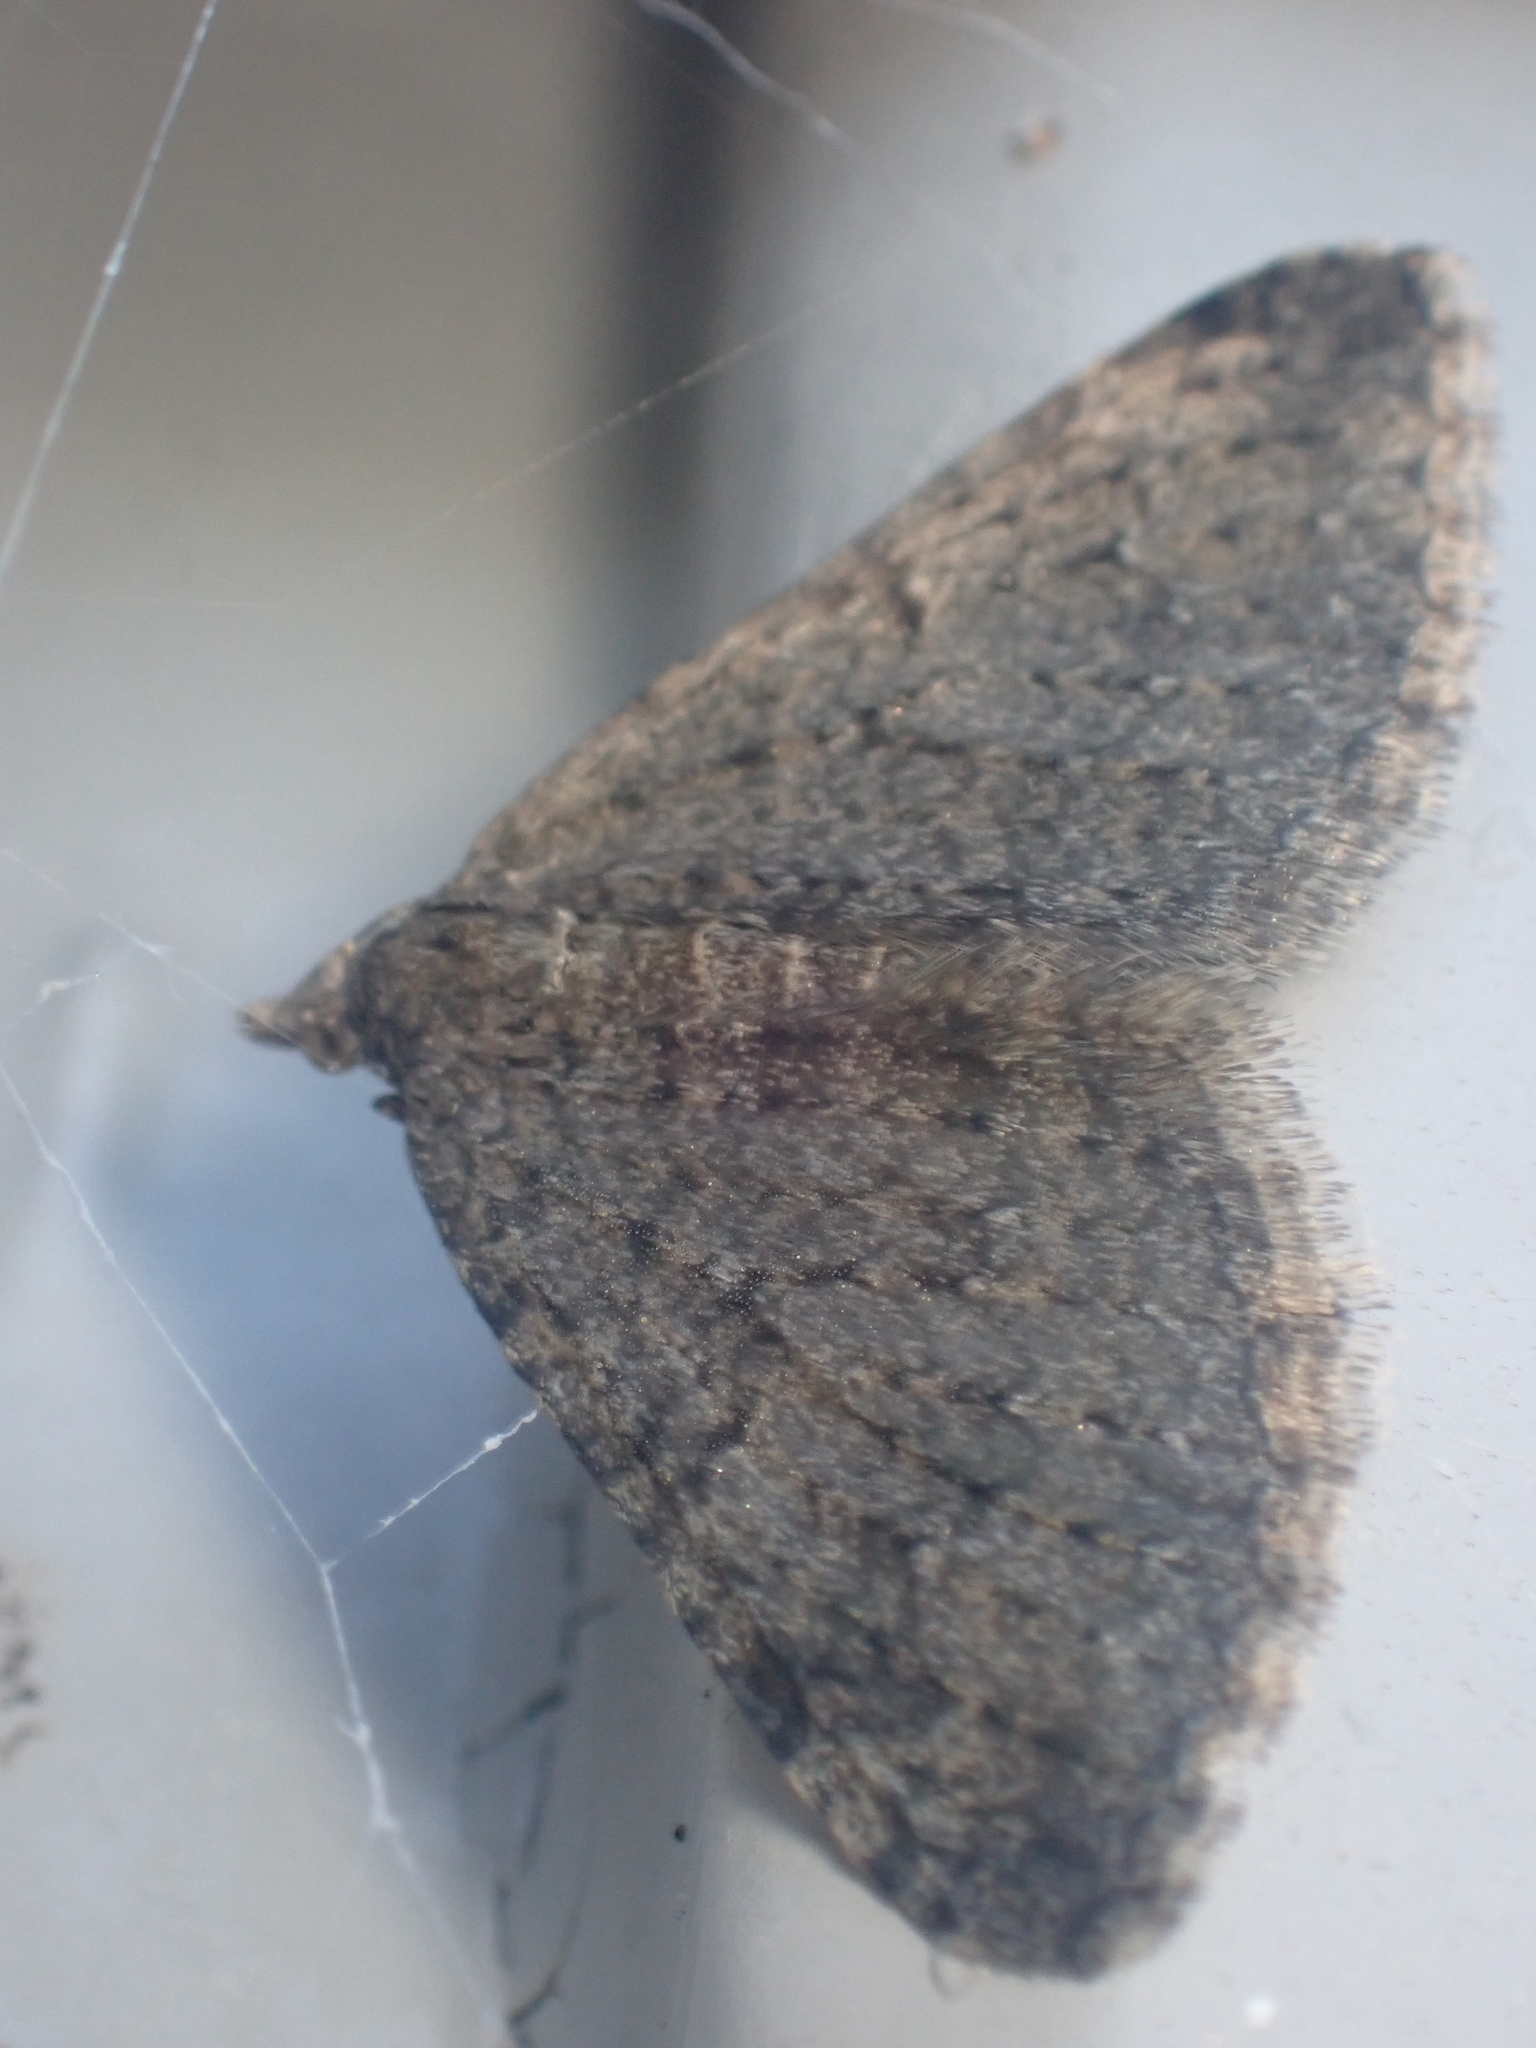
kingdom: Animalia
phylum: Arthropoda
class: Insecta
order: Lepidoptera
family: Geometridae
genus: Helastia
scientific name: Helastia corcularia
